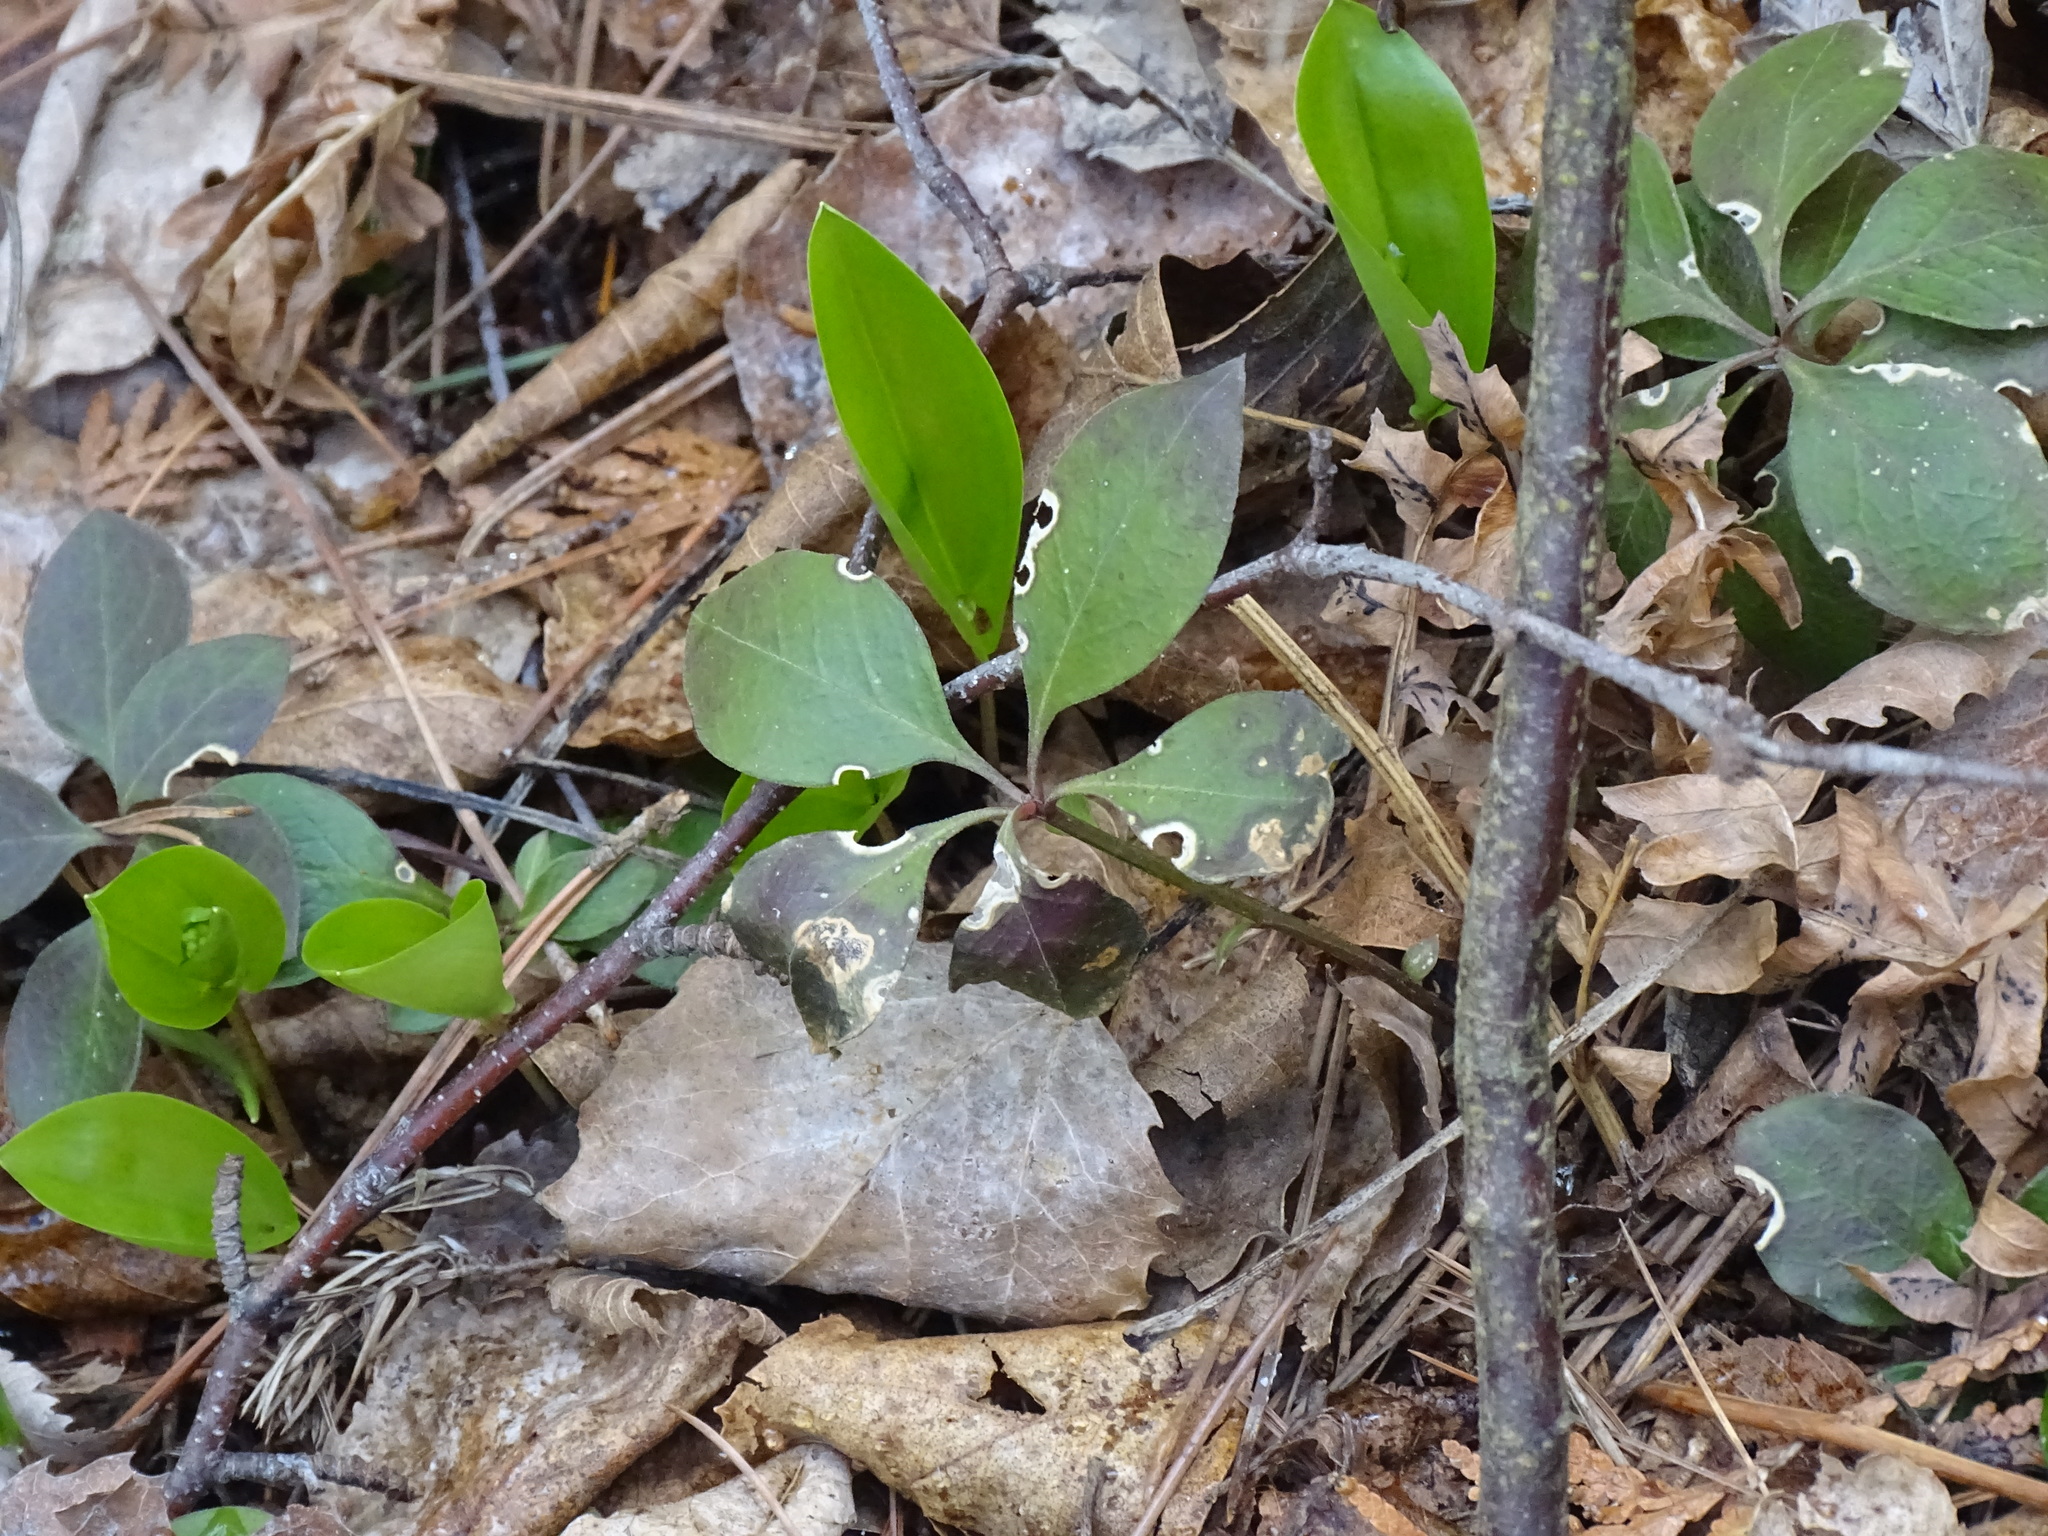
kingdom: Plantae
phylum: Tracheophyta
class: Magnoliopsida
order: Fabales
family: Polygalaceae
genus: Polygaloides
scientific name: Polygaloides paucifolia
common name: Bird-on-the-wing
